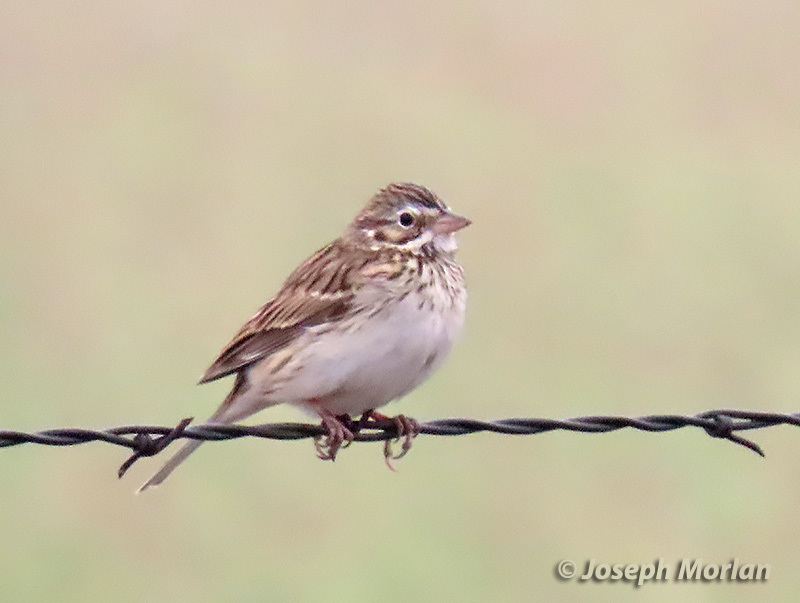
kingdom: Animalia
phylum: Chordata
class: Aves
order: Passeriformes
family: Passerellidae
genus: Pooecetes
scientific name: Pooecetes gramineus
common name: Vesper sparrow
